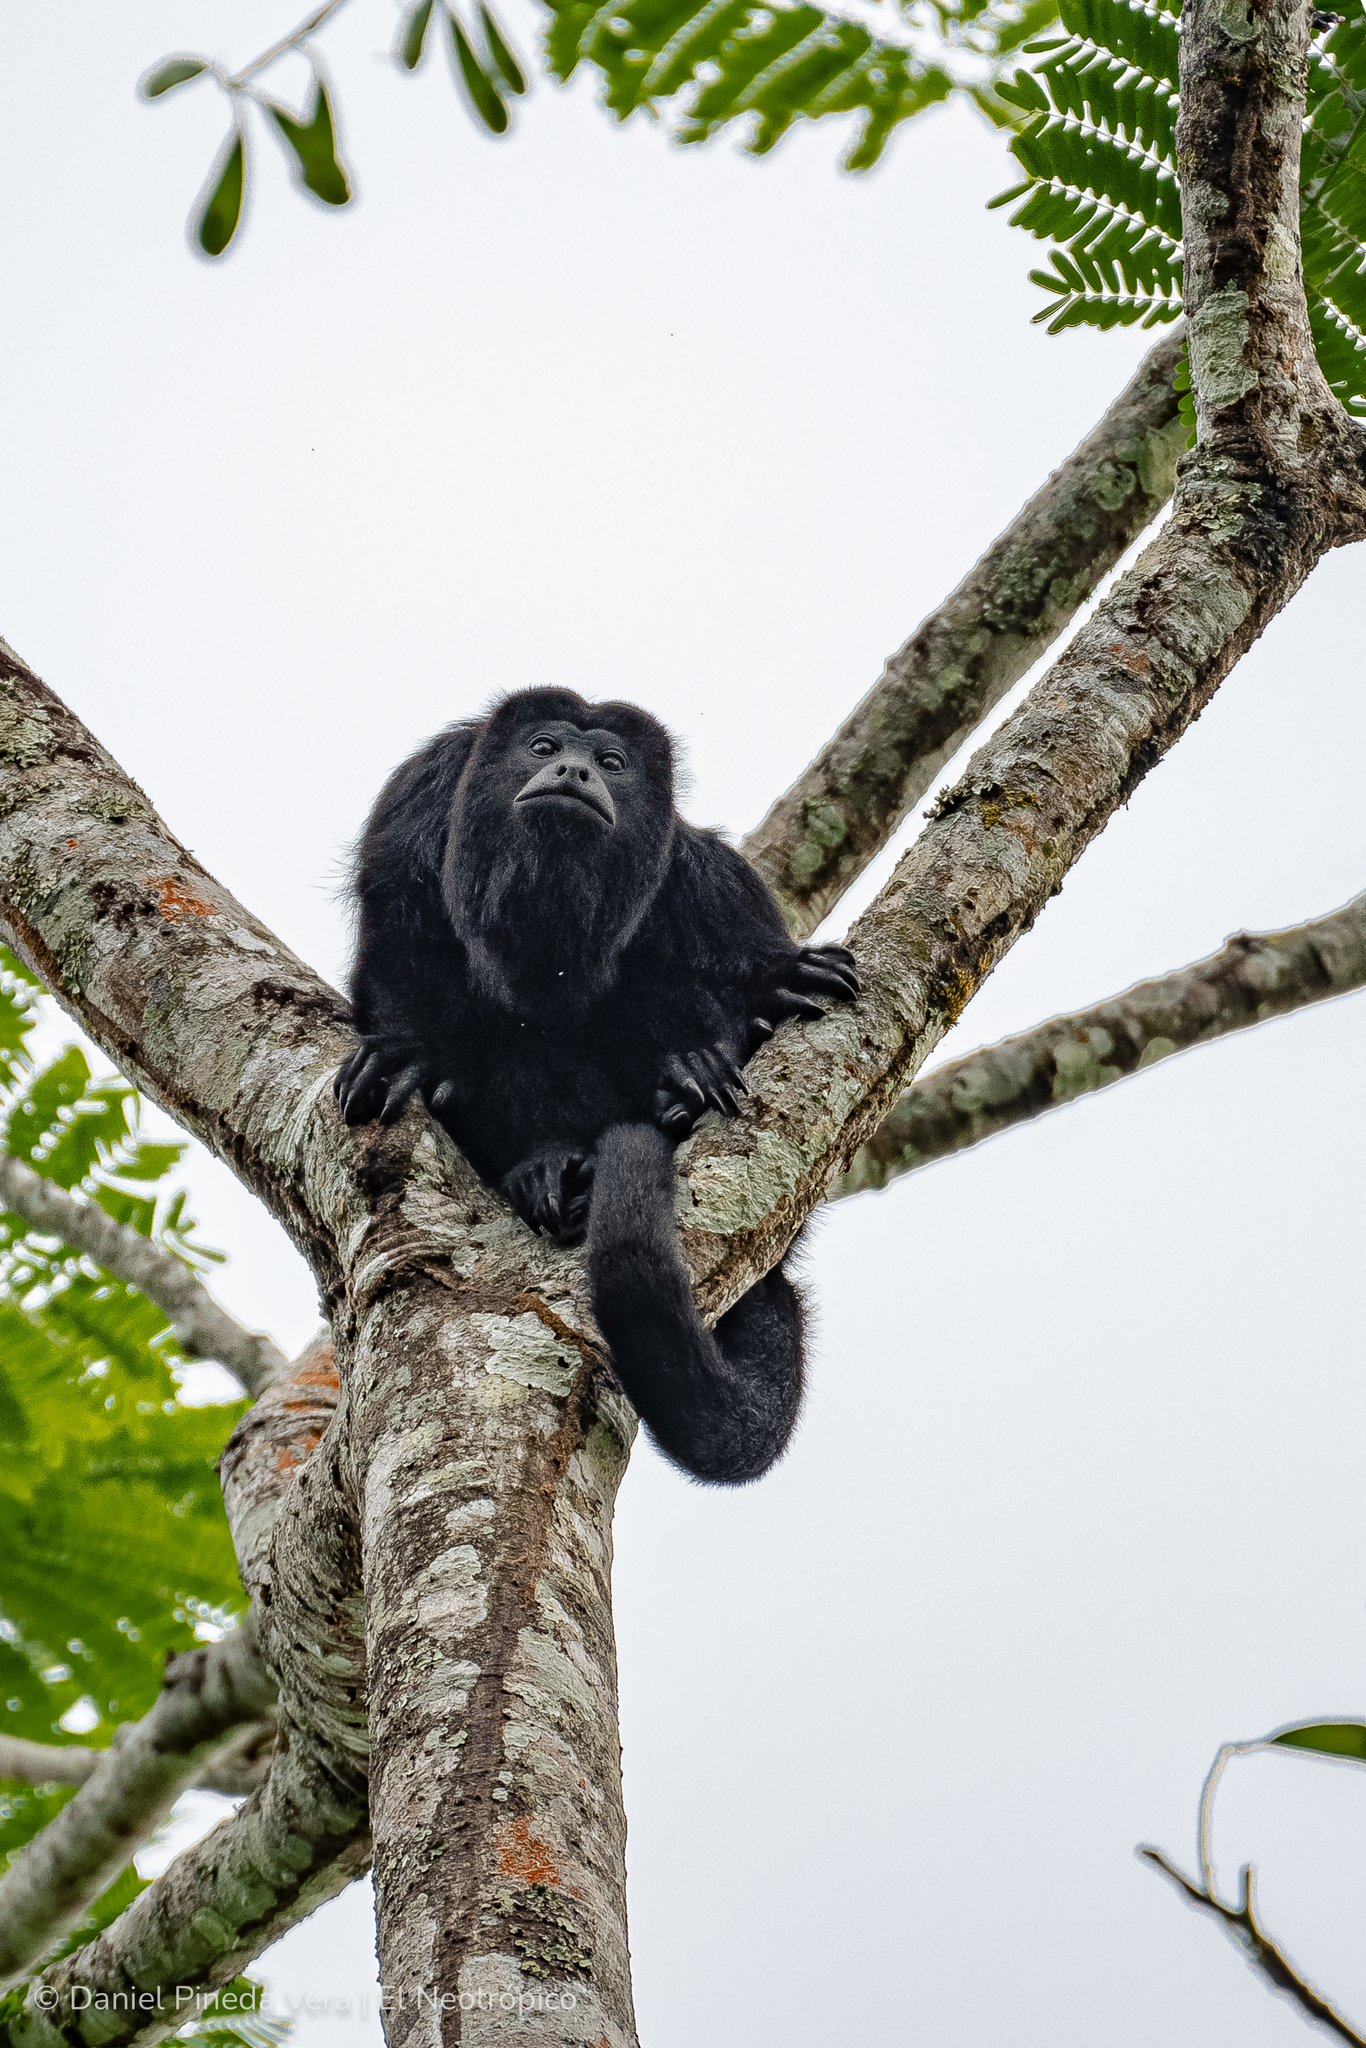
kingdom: Animalia
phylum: Chordata
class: Mammalia
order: Primates
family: Atelidae
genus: Alouatta
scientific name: Alouatta pigra
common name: Guatemalan black howler
